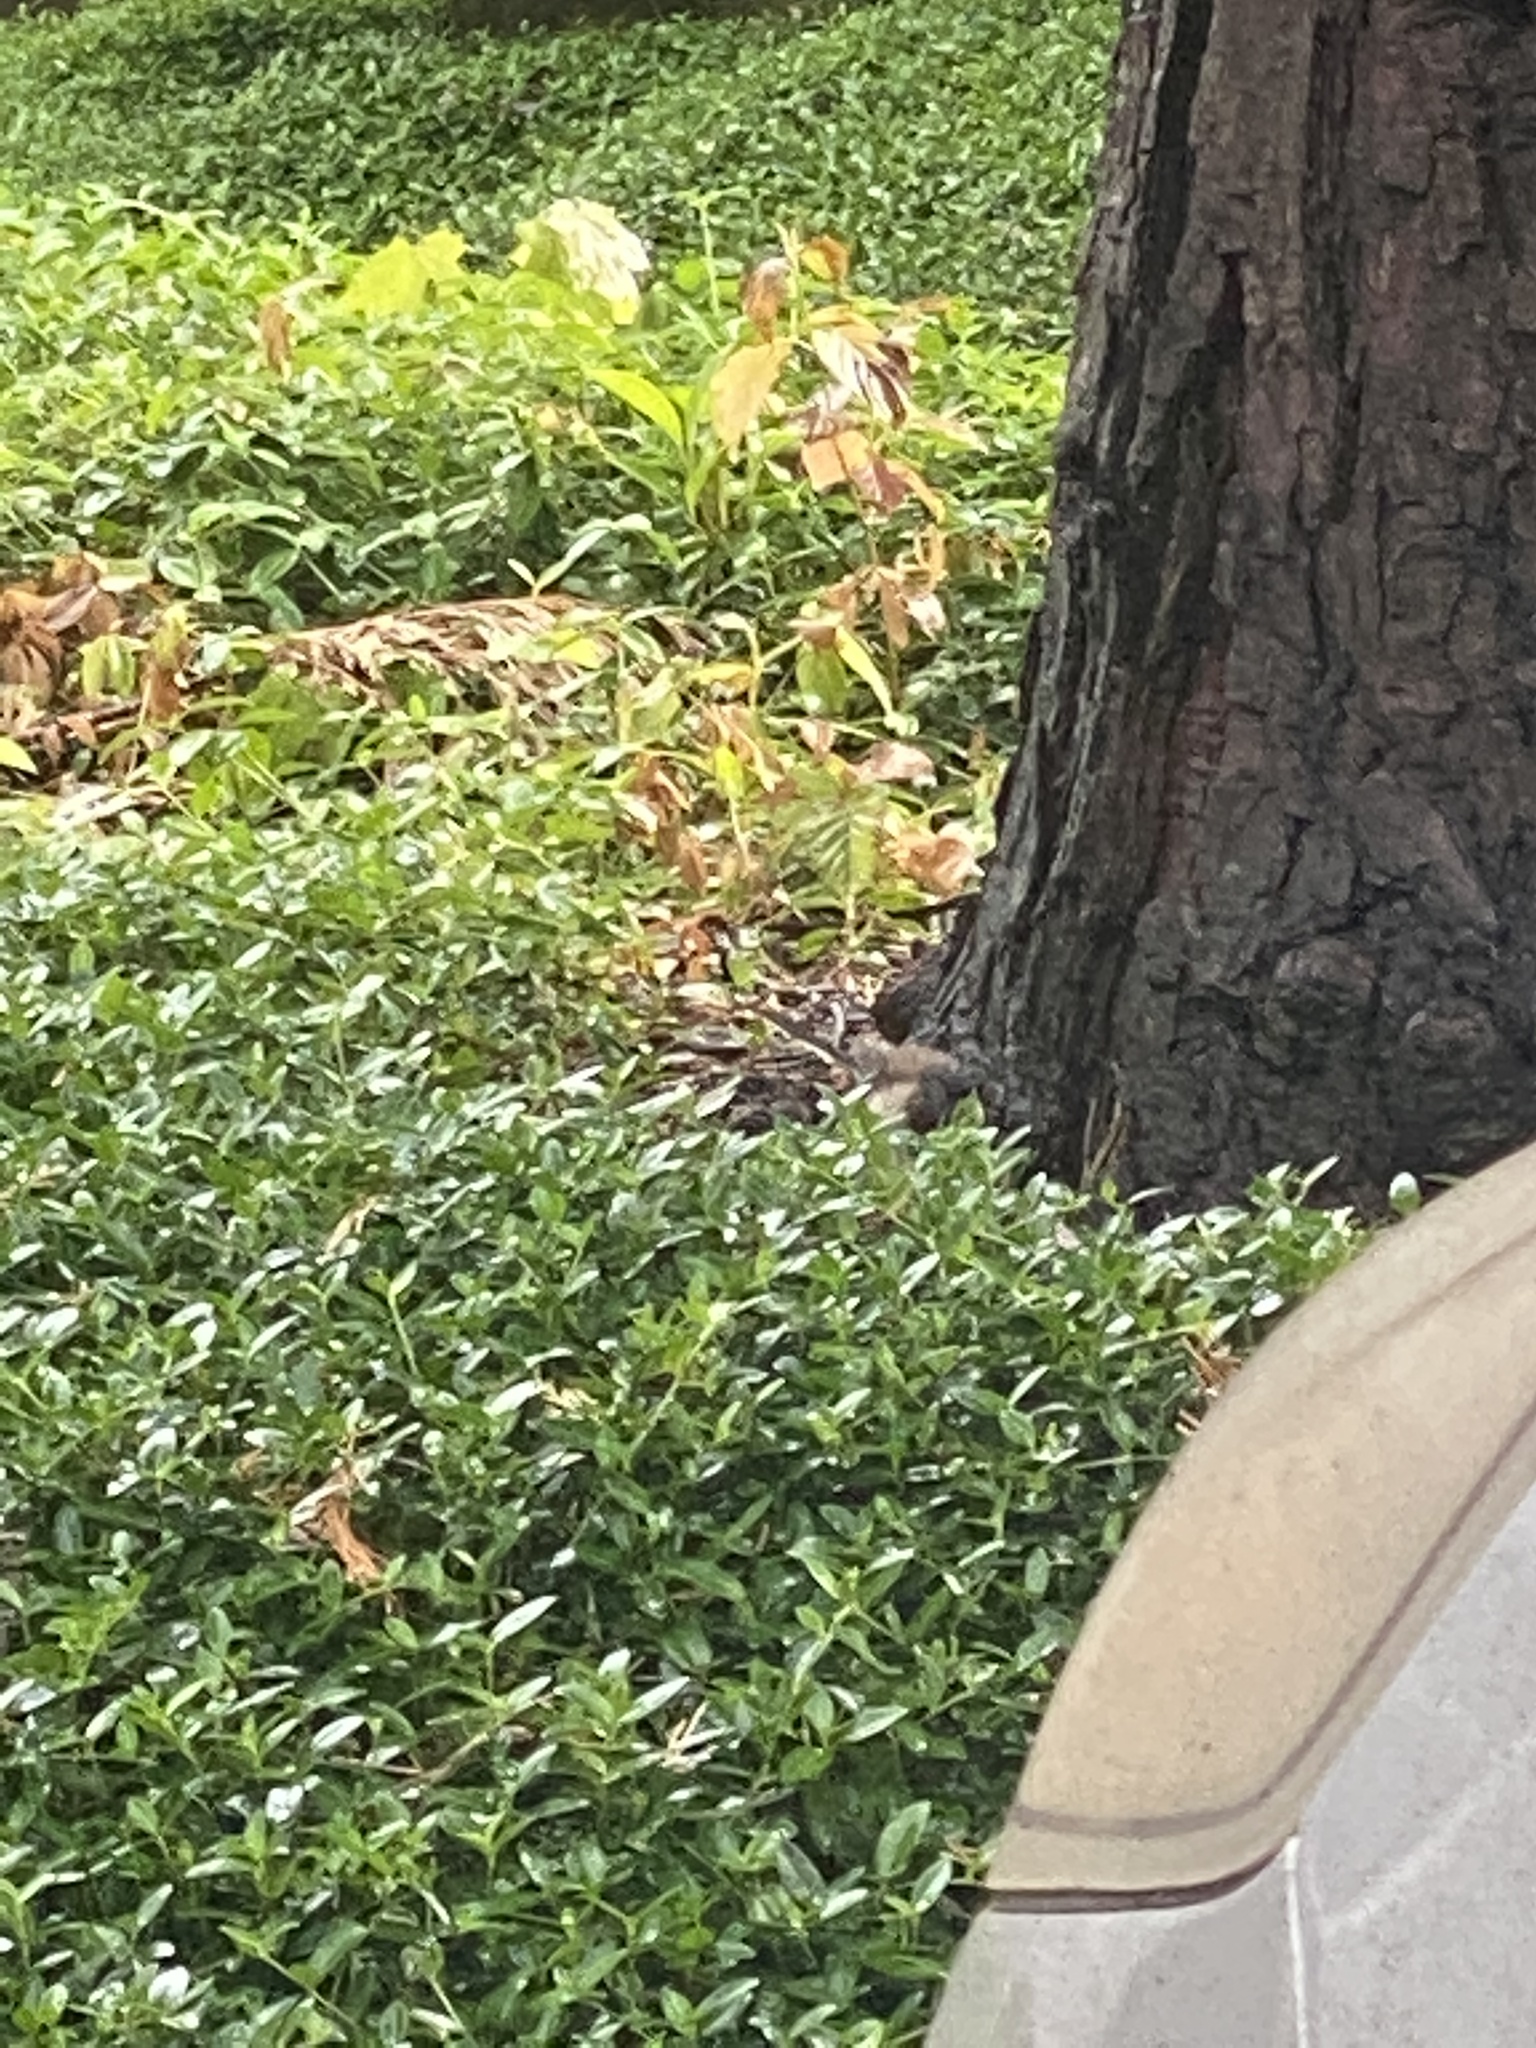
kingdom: Animalia
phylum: Chordata
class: Aves
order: Passeriformes
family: Passerellidae
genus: Junco
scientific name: Junco hyemalis
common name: Dark-eyed junco
